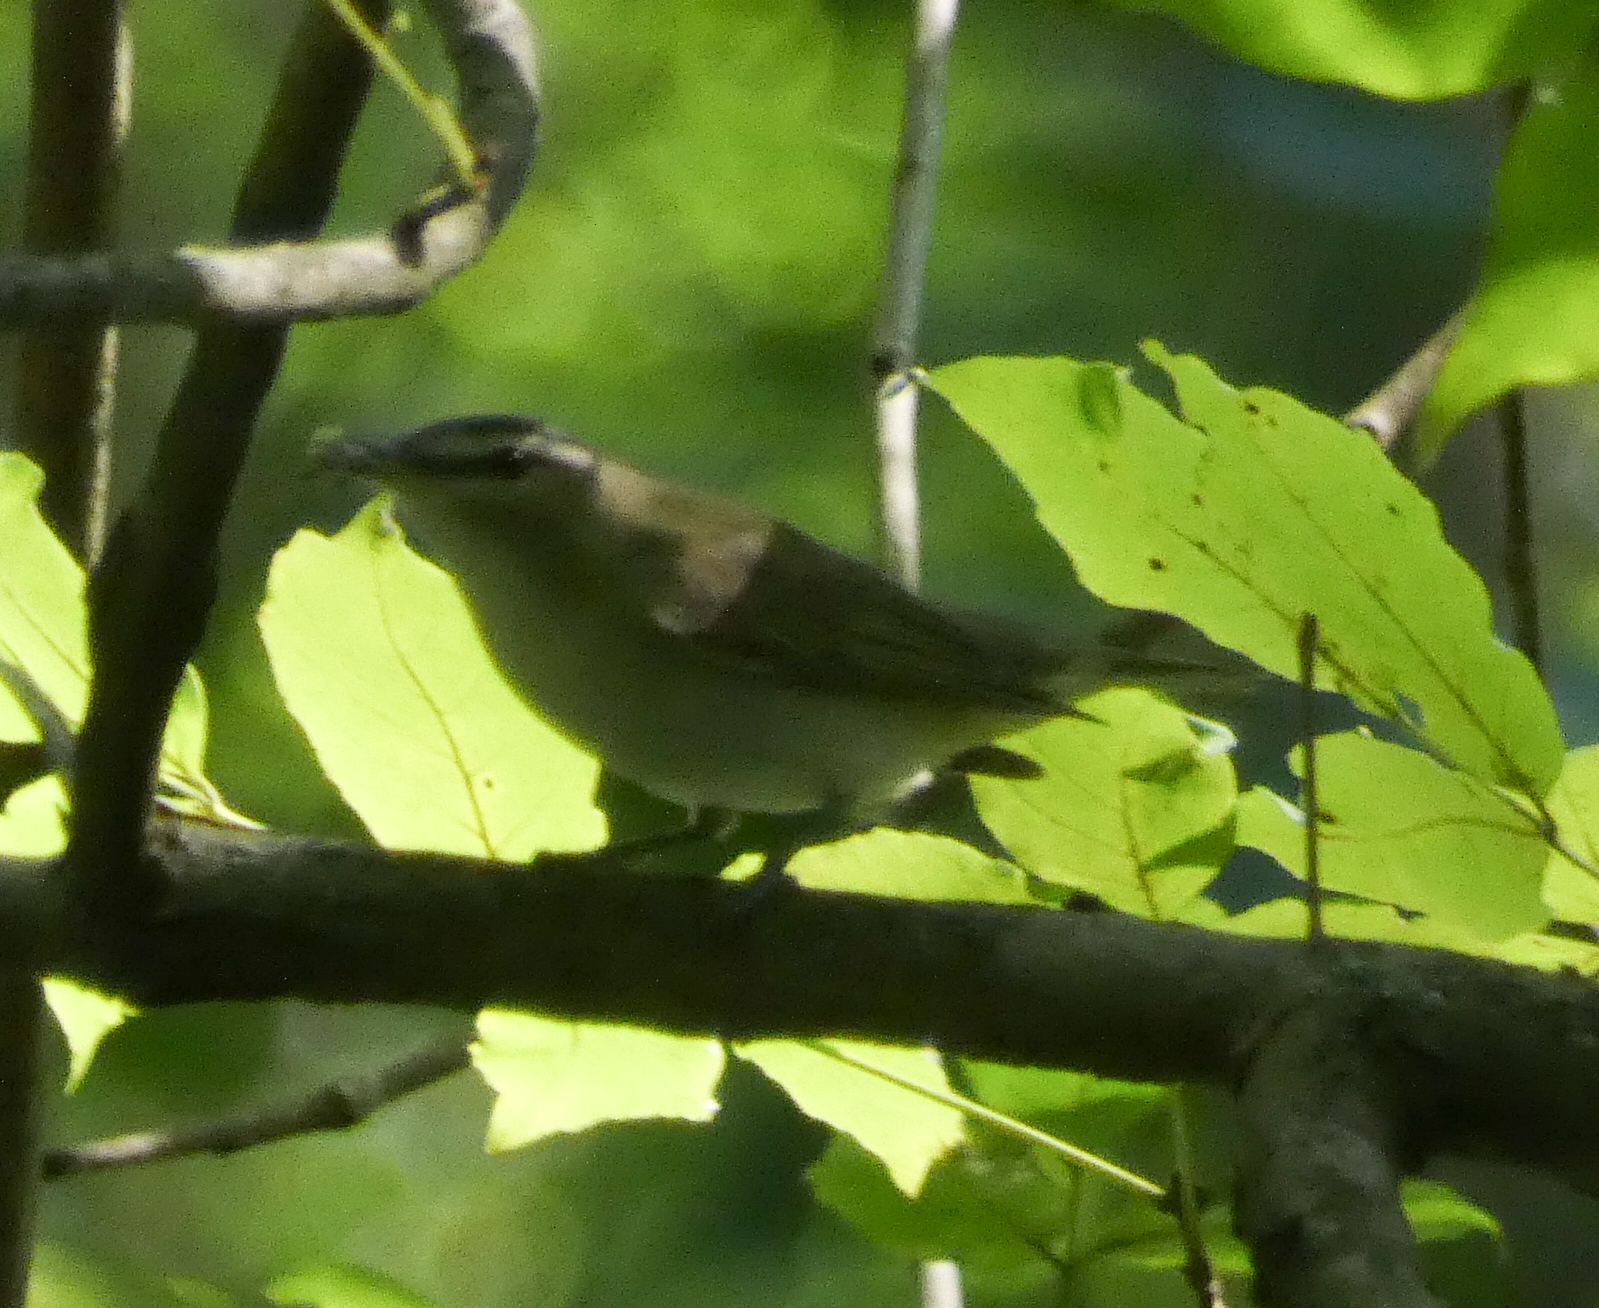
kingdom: Animalia
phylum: Chordata
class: Aves
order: Passeriformes
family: Vireonidae
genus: Vireo
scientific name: Vireo olivaceus
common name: Red-eyed vireo
